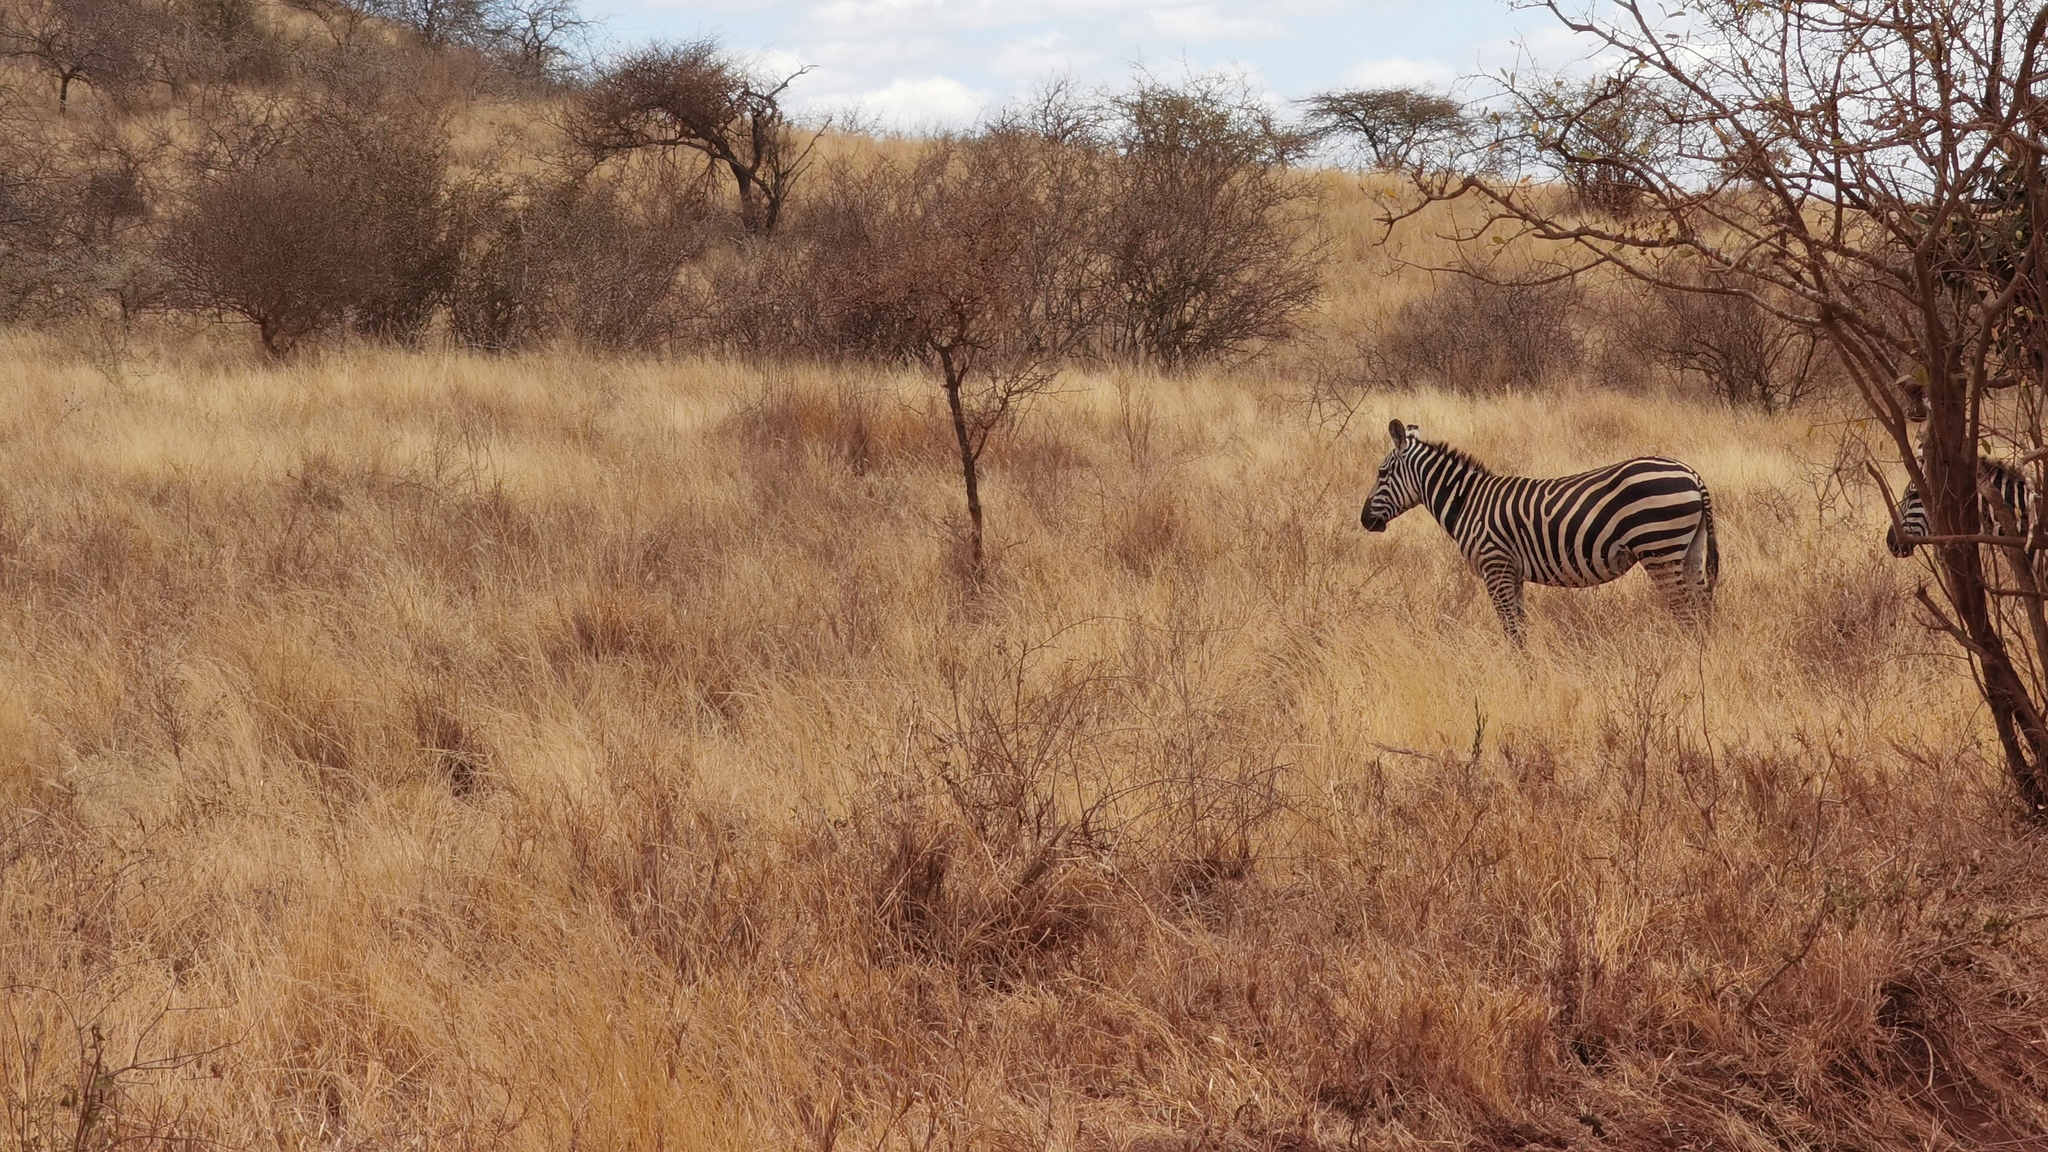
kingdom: Animalia
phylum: Chordata
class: Mammalia
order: Perissodactyla
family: Equidae
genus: Equus
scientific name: Equus quagga
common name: Plains zebra
